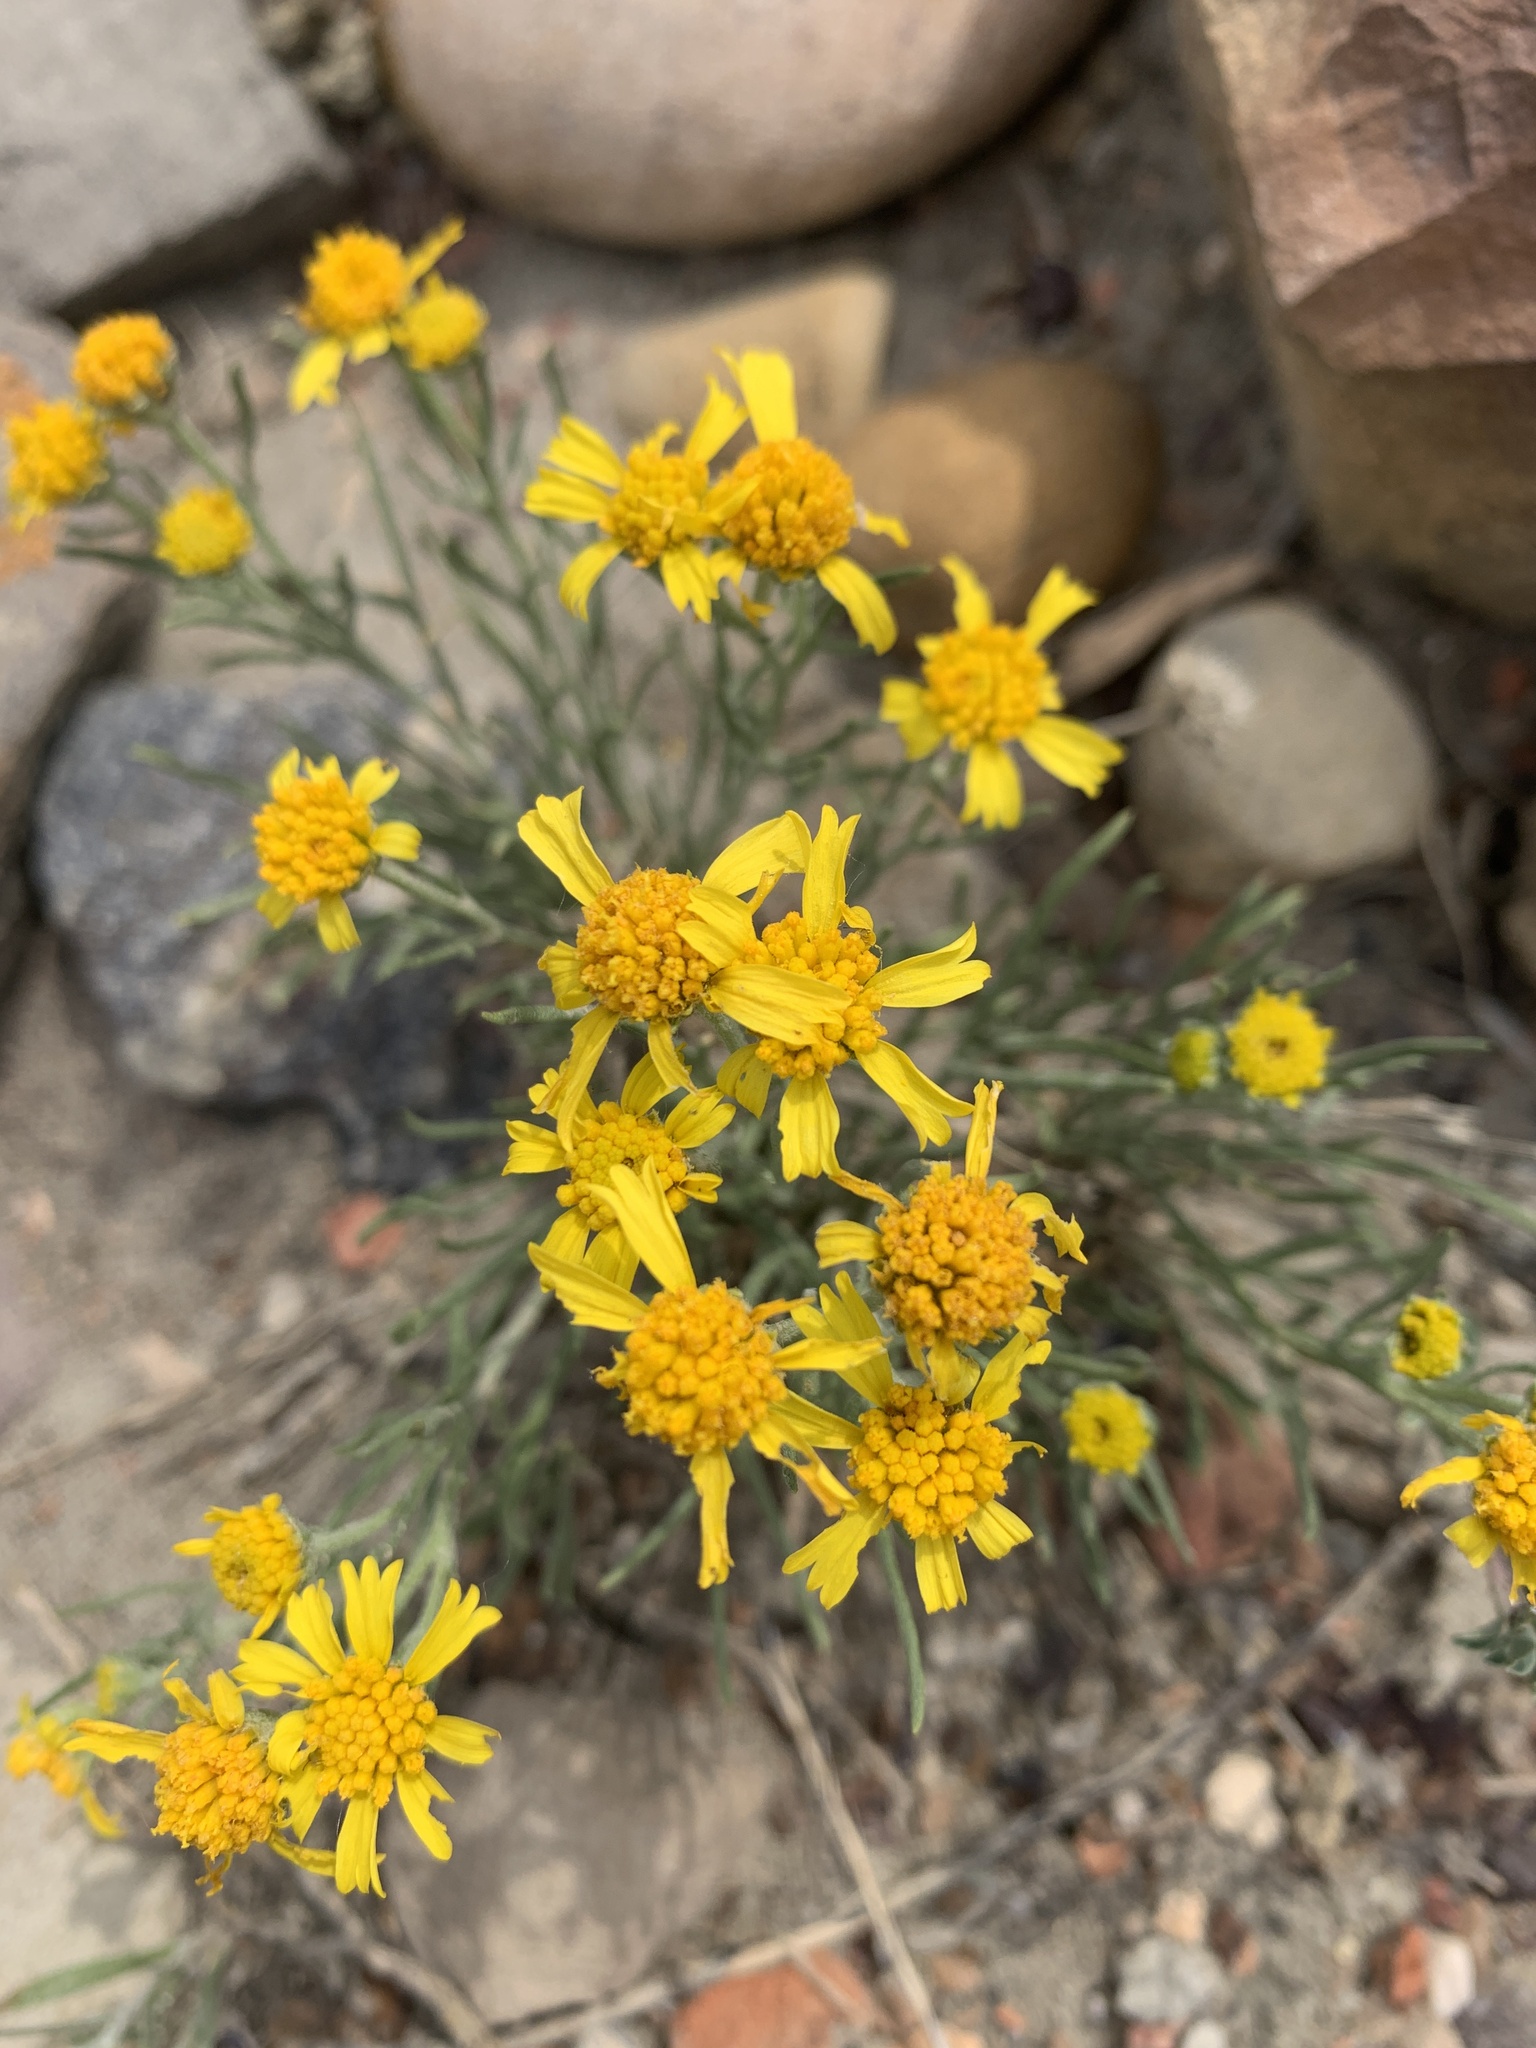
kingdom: Plantae
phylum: Tracheophyta
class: Magnoliopsida
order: Asterales
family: Asteraceae
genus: Hymenoxys
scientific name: Hymenoxys richardsonii
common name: Pingue rubberweed
